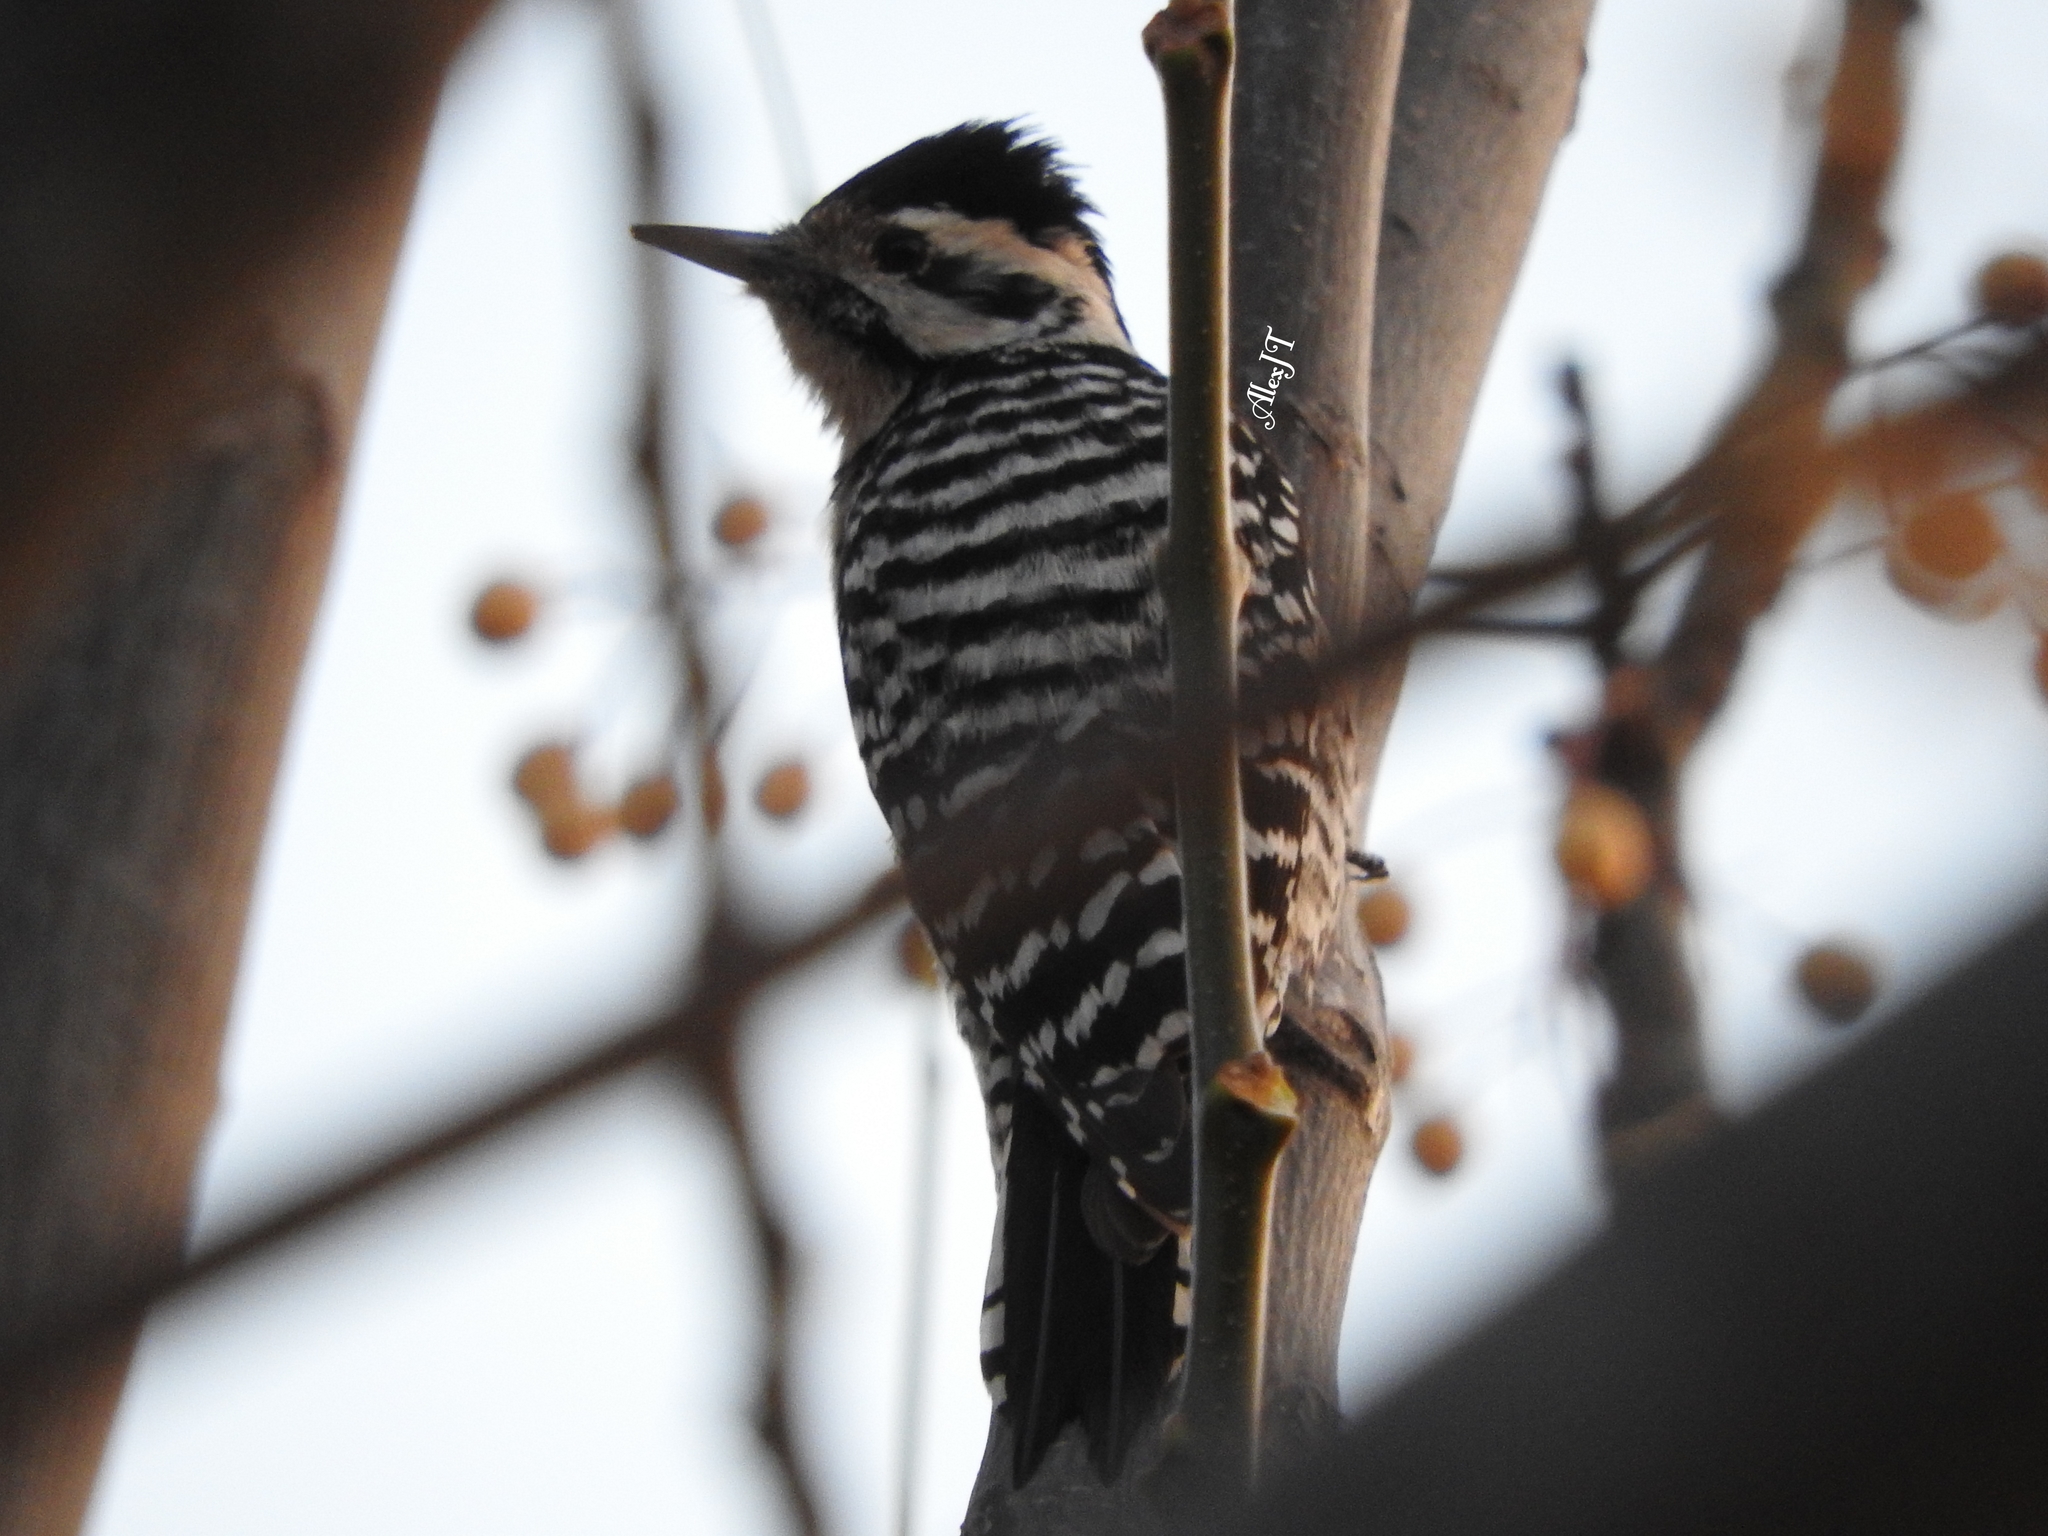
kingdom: Animalia
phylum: Chordata
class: Aves
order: Piciformes
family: Picidae
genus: Dryobates
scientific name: Dryobates scalaris
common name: Ladder-backed woodpecker
